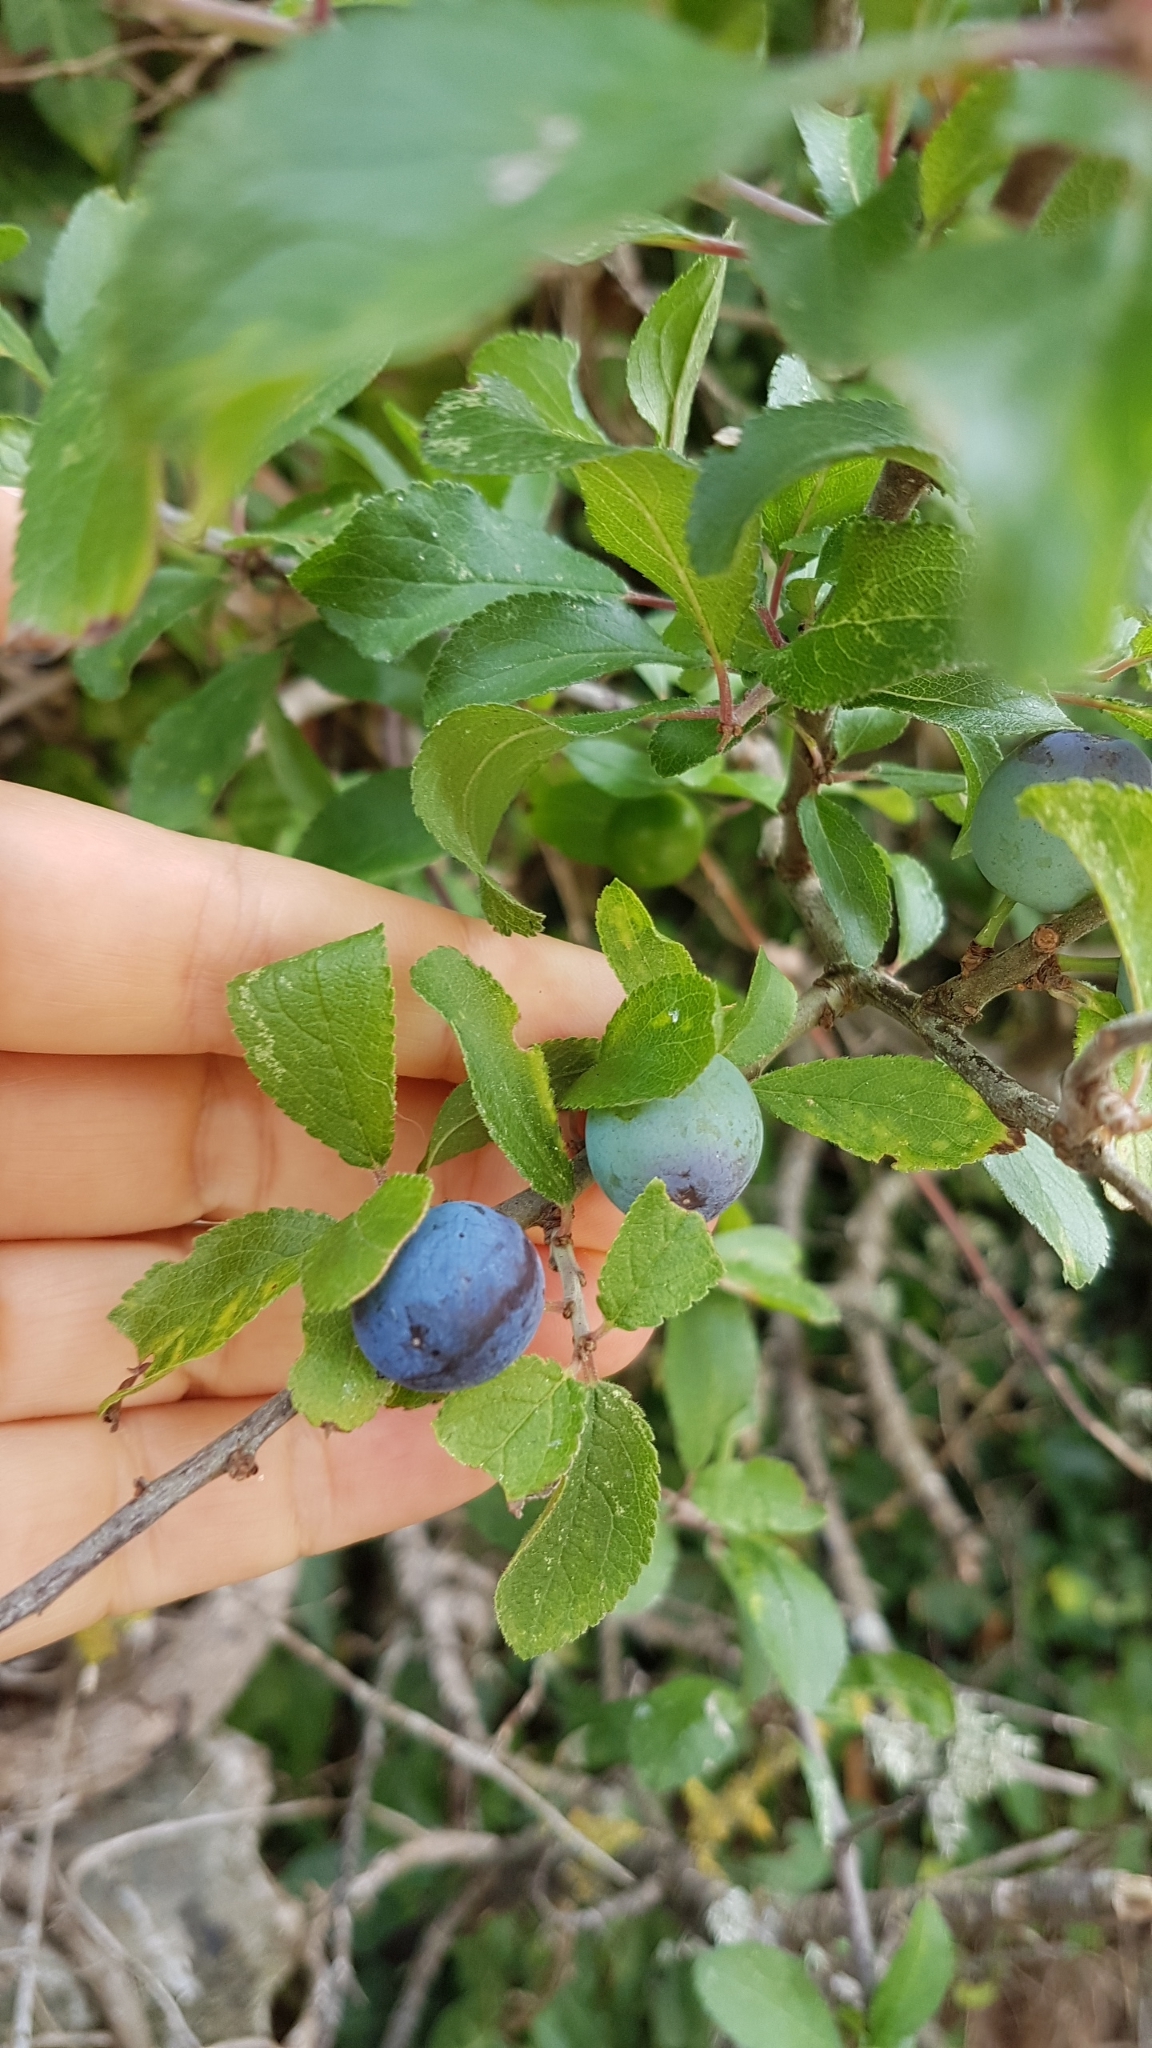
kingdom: Plantae
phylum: Tracheophyta
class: Magnoliopsida
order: Rosales
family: Rosaceae
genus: Prunus
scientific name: Prunus spinosa
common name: Blackthorn
